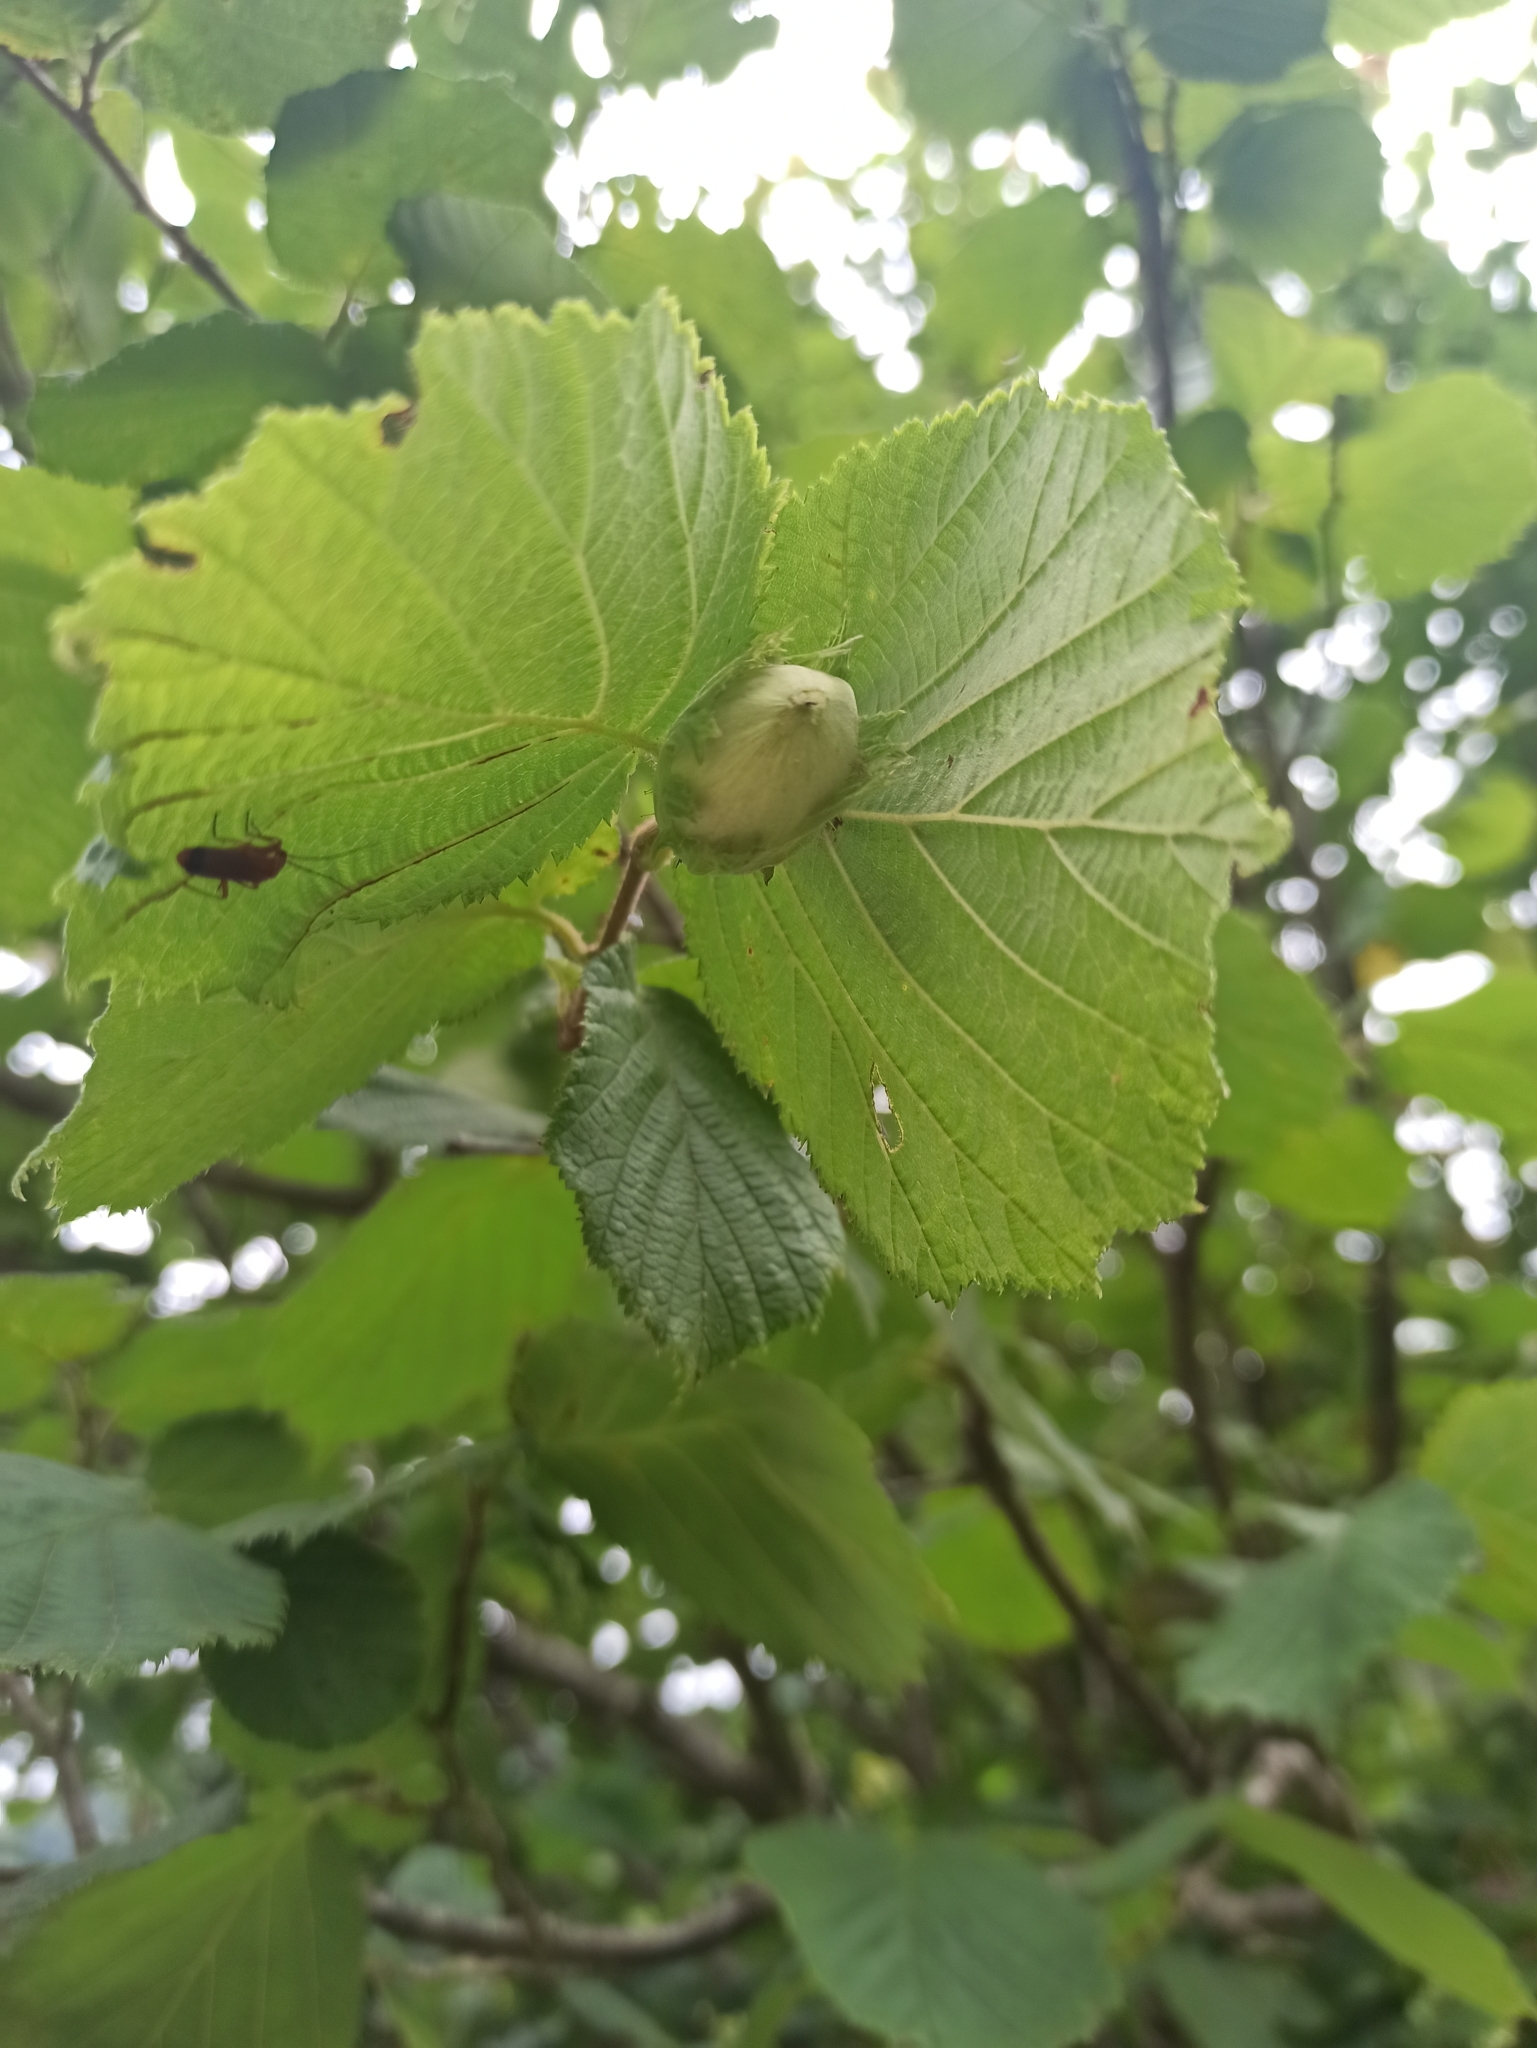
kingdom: Plantae
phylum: Tracheophyta
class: Magnoliopsida
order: Fagales
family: Betulaceae
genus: Corylus
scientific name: Corylus avellana
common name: European hazel
